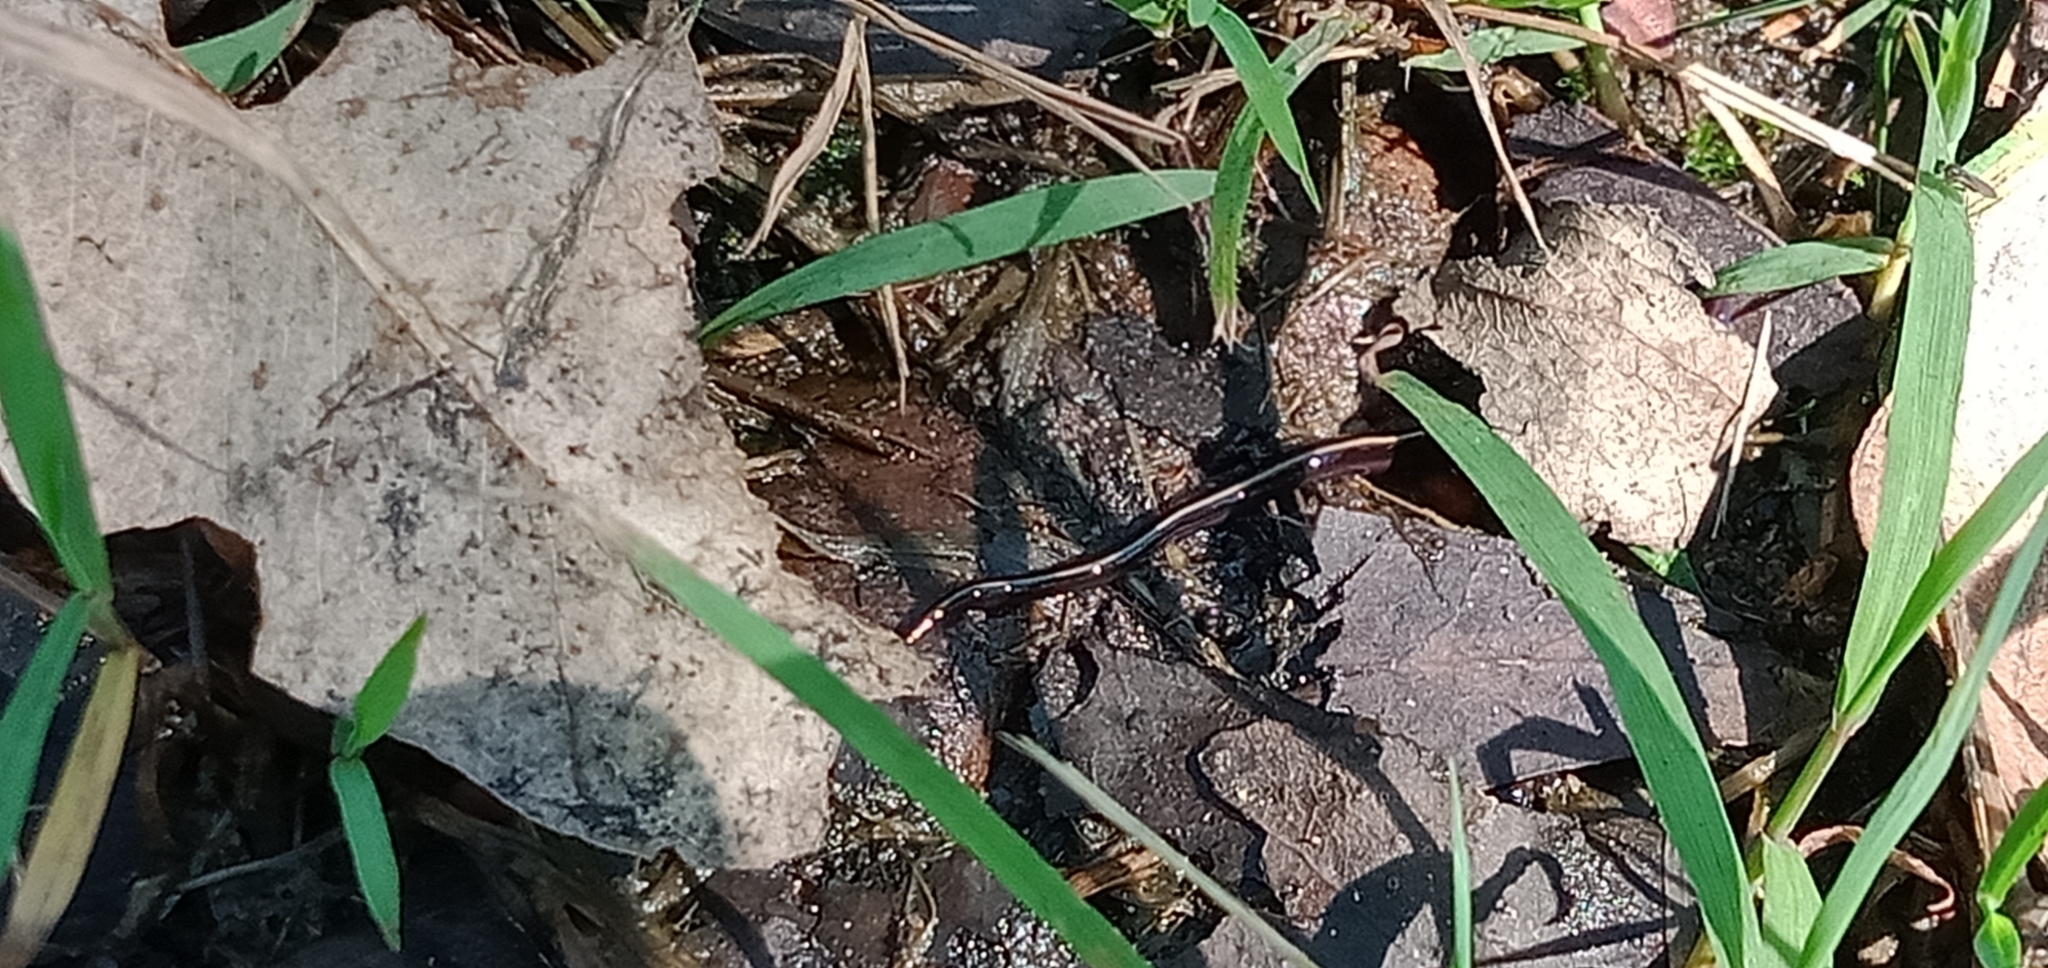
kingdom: Animalia
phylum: Platyhelminthes
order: Tricladida
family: Geoplanidae
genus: Caenoplana
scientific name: Caenoplana coerulea
